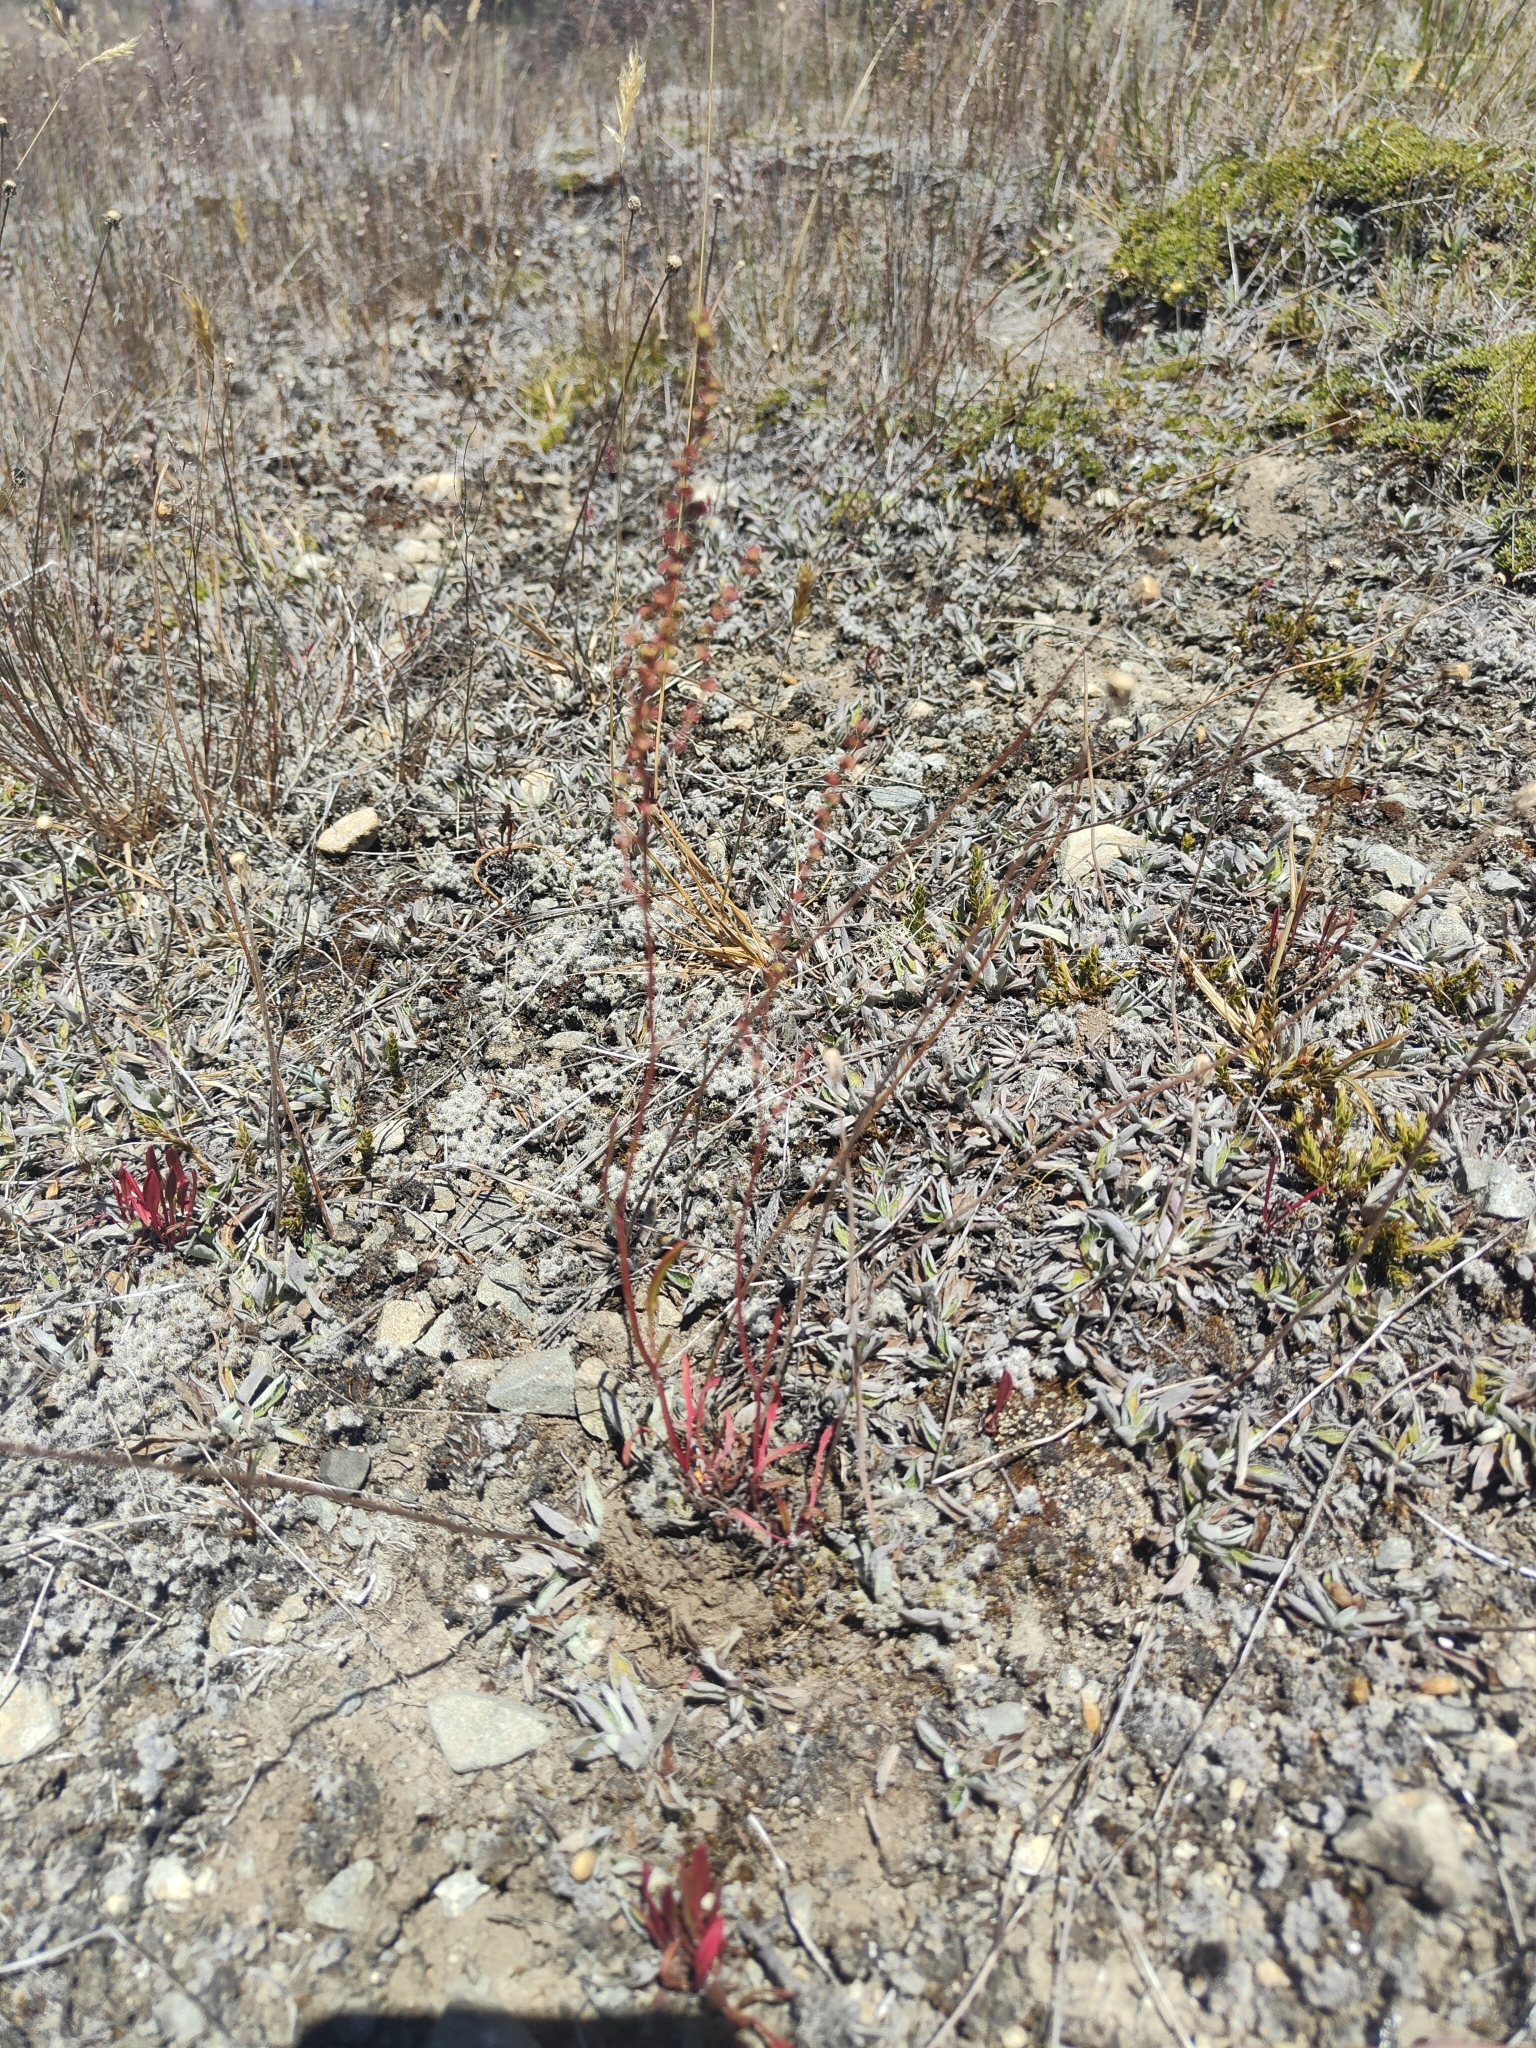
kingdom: Plantae
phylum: Tracheophyta
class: Magnoliopsida
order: Caryophyllales
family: Polygonaceae
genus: Rumex
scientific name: Rumex acetosella
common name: Common sheep sorrel
